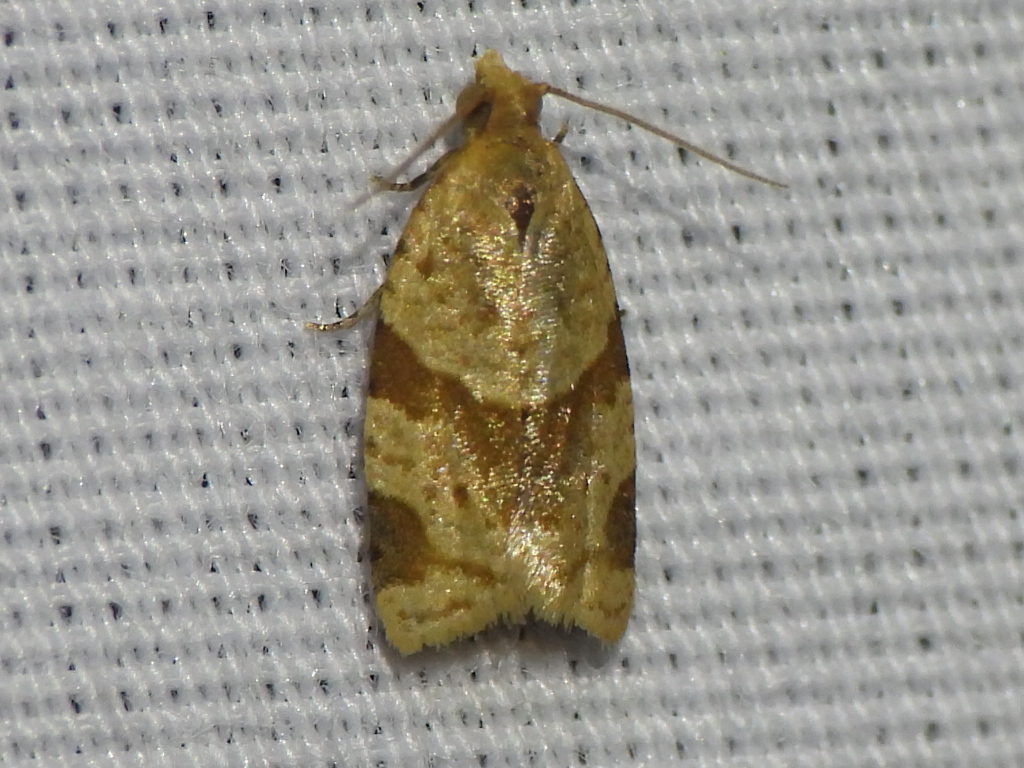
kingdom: Animalia
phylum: Arthropoda
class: Insecta
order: Lepidoptera
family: Tortricidae
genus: Clepsis
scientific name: Clepsis peritana
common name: Garden tortrix
